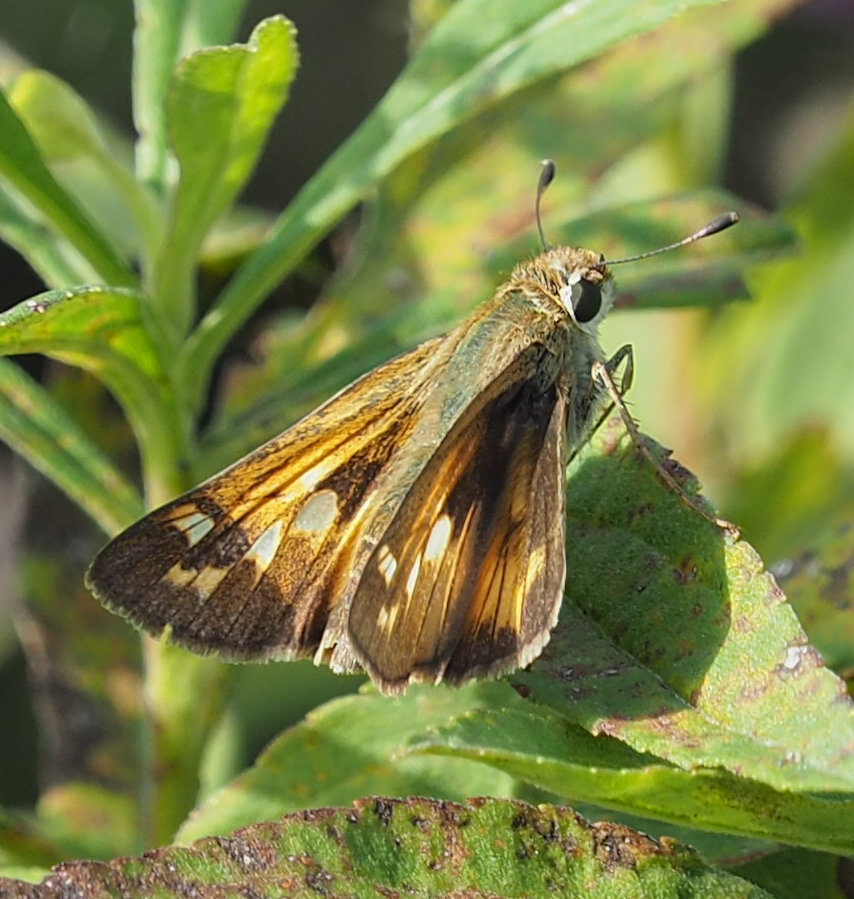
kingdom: Animalia
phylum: Arthropoda
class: Insecta
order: Lepidoptera
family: Hesperiidae
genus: Atalopedes
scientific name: Atalopedes
